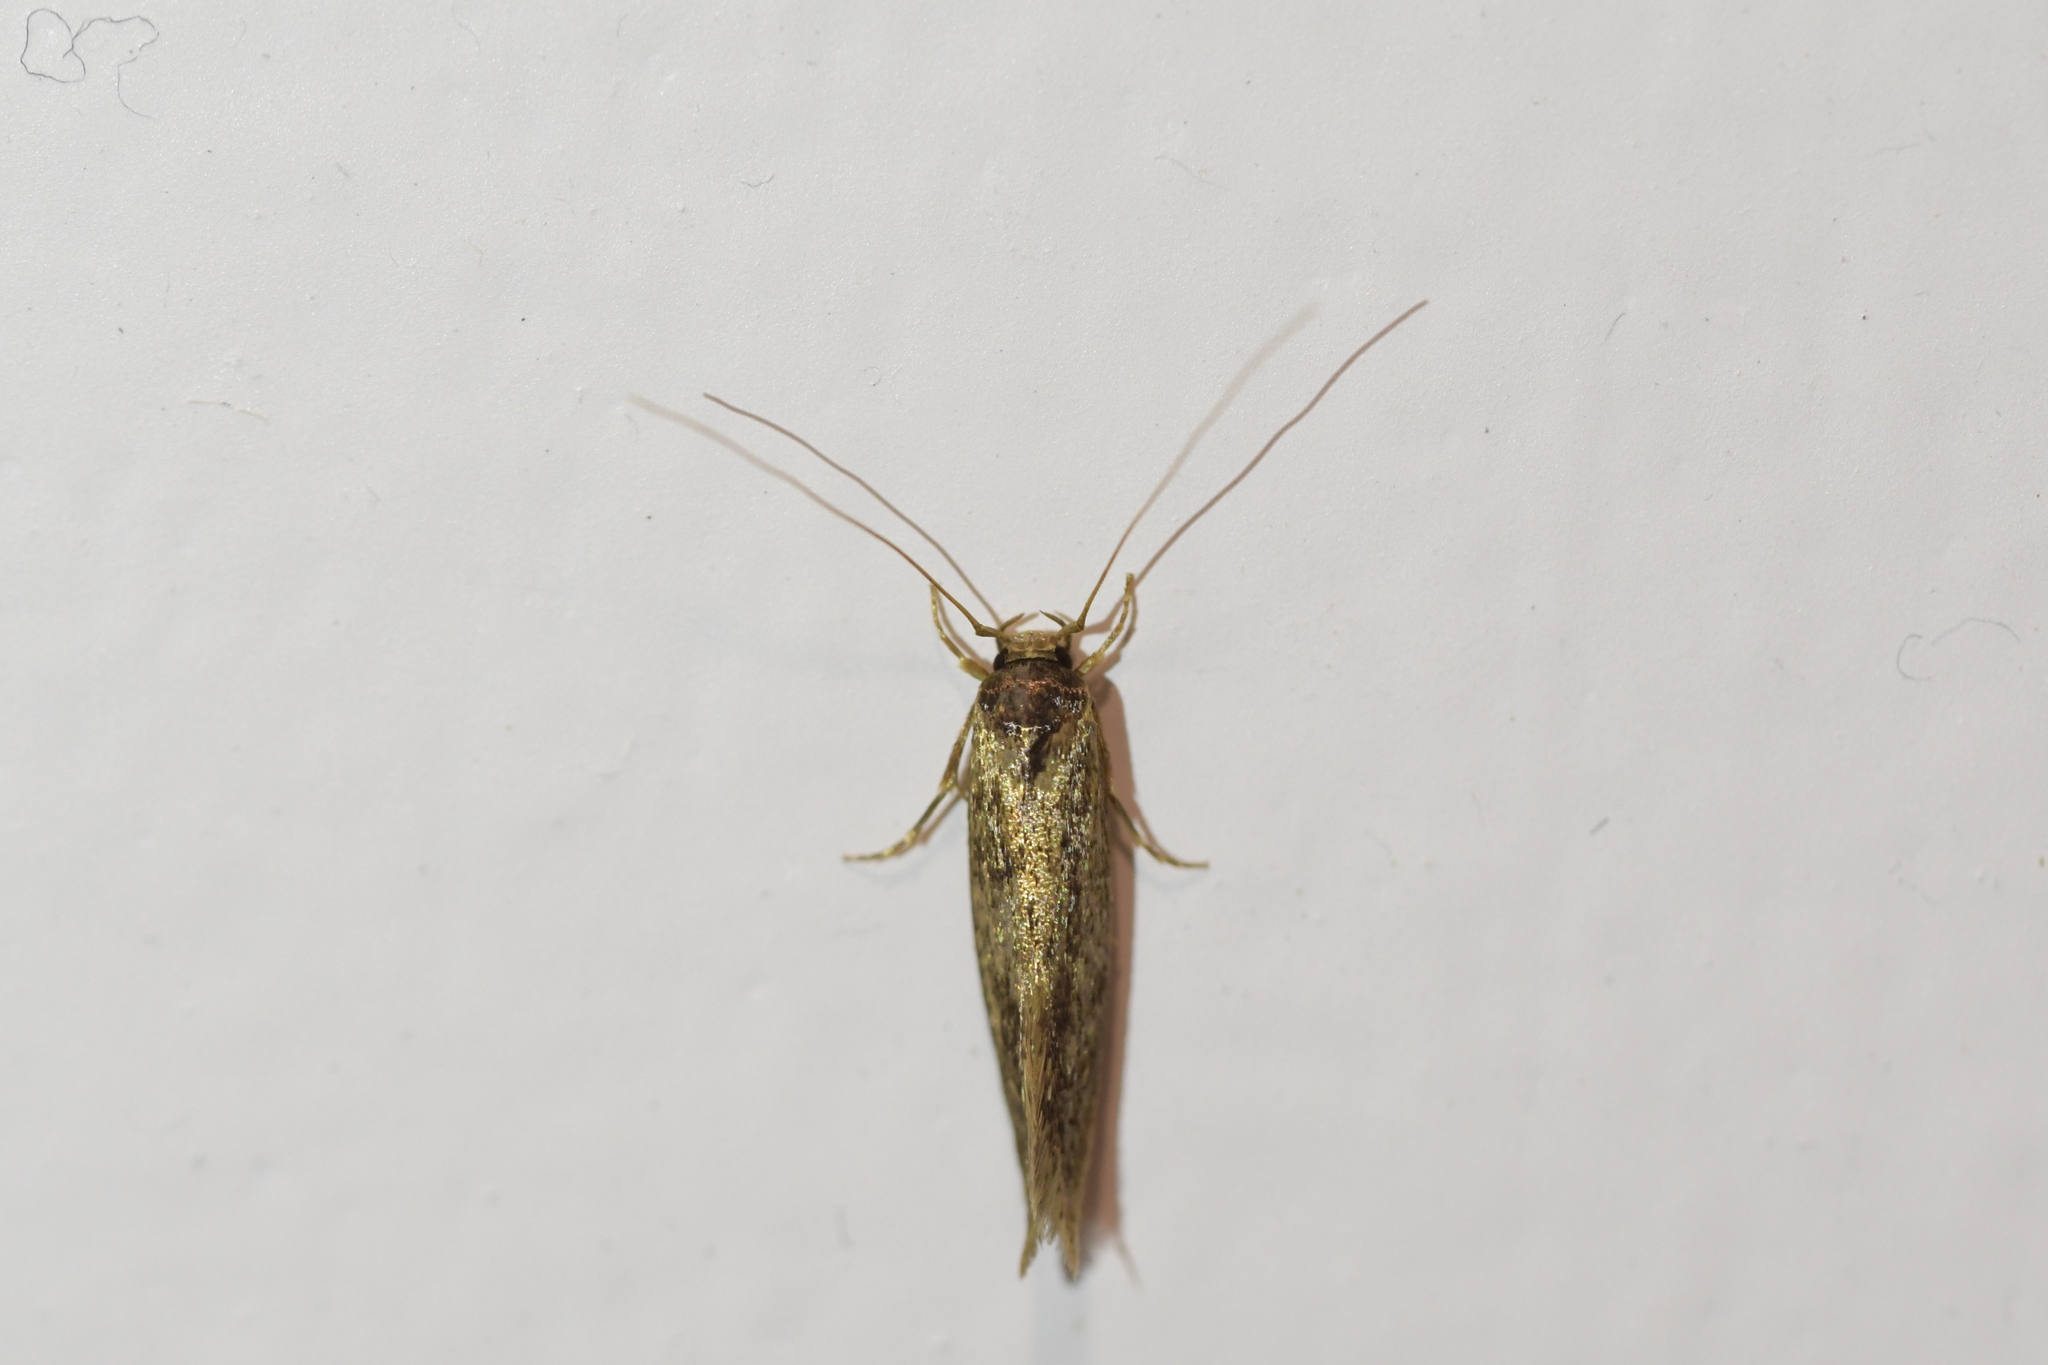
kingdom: Animalia
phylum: Arthropoda
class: Insecta
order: Lepidoptera
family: Tineidae
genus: Opogona
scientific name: Opogona omoscopa
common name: Moth
